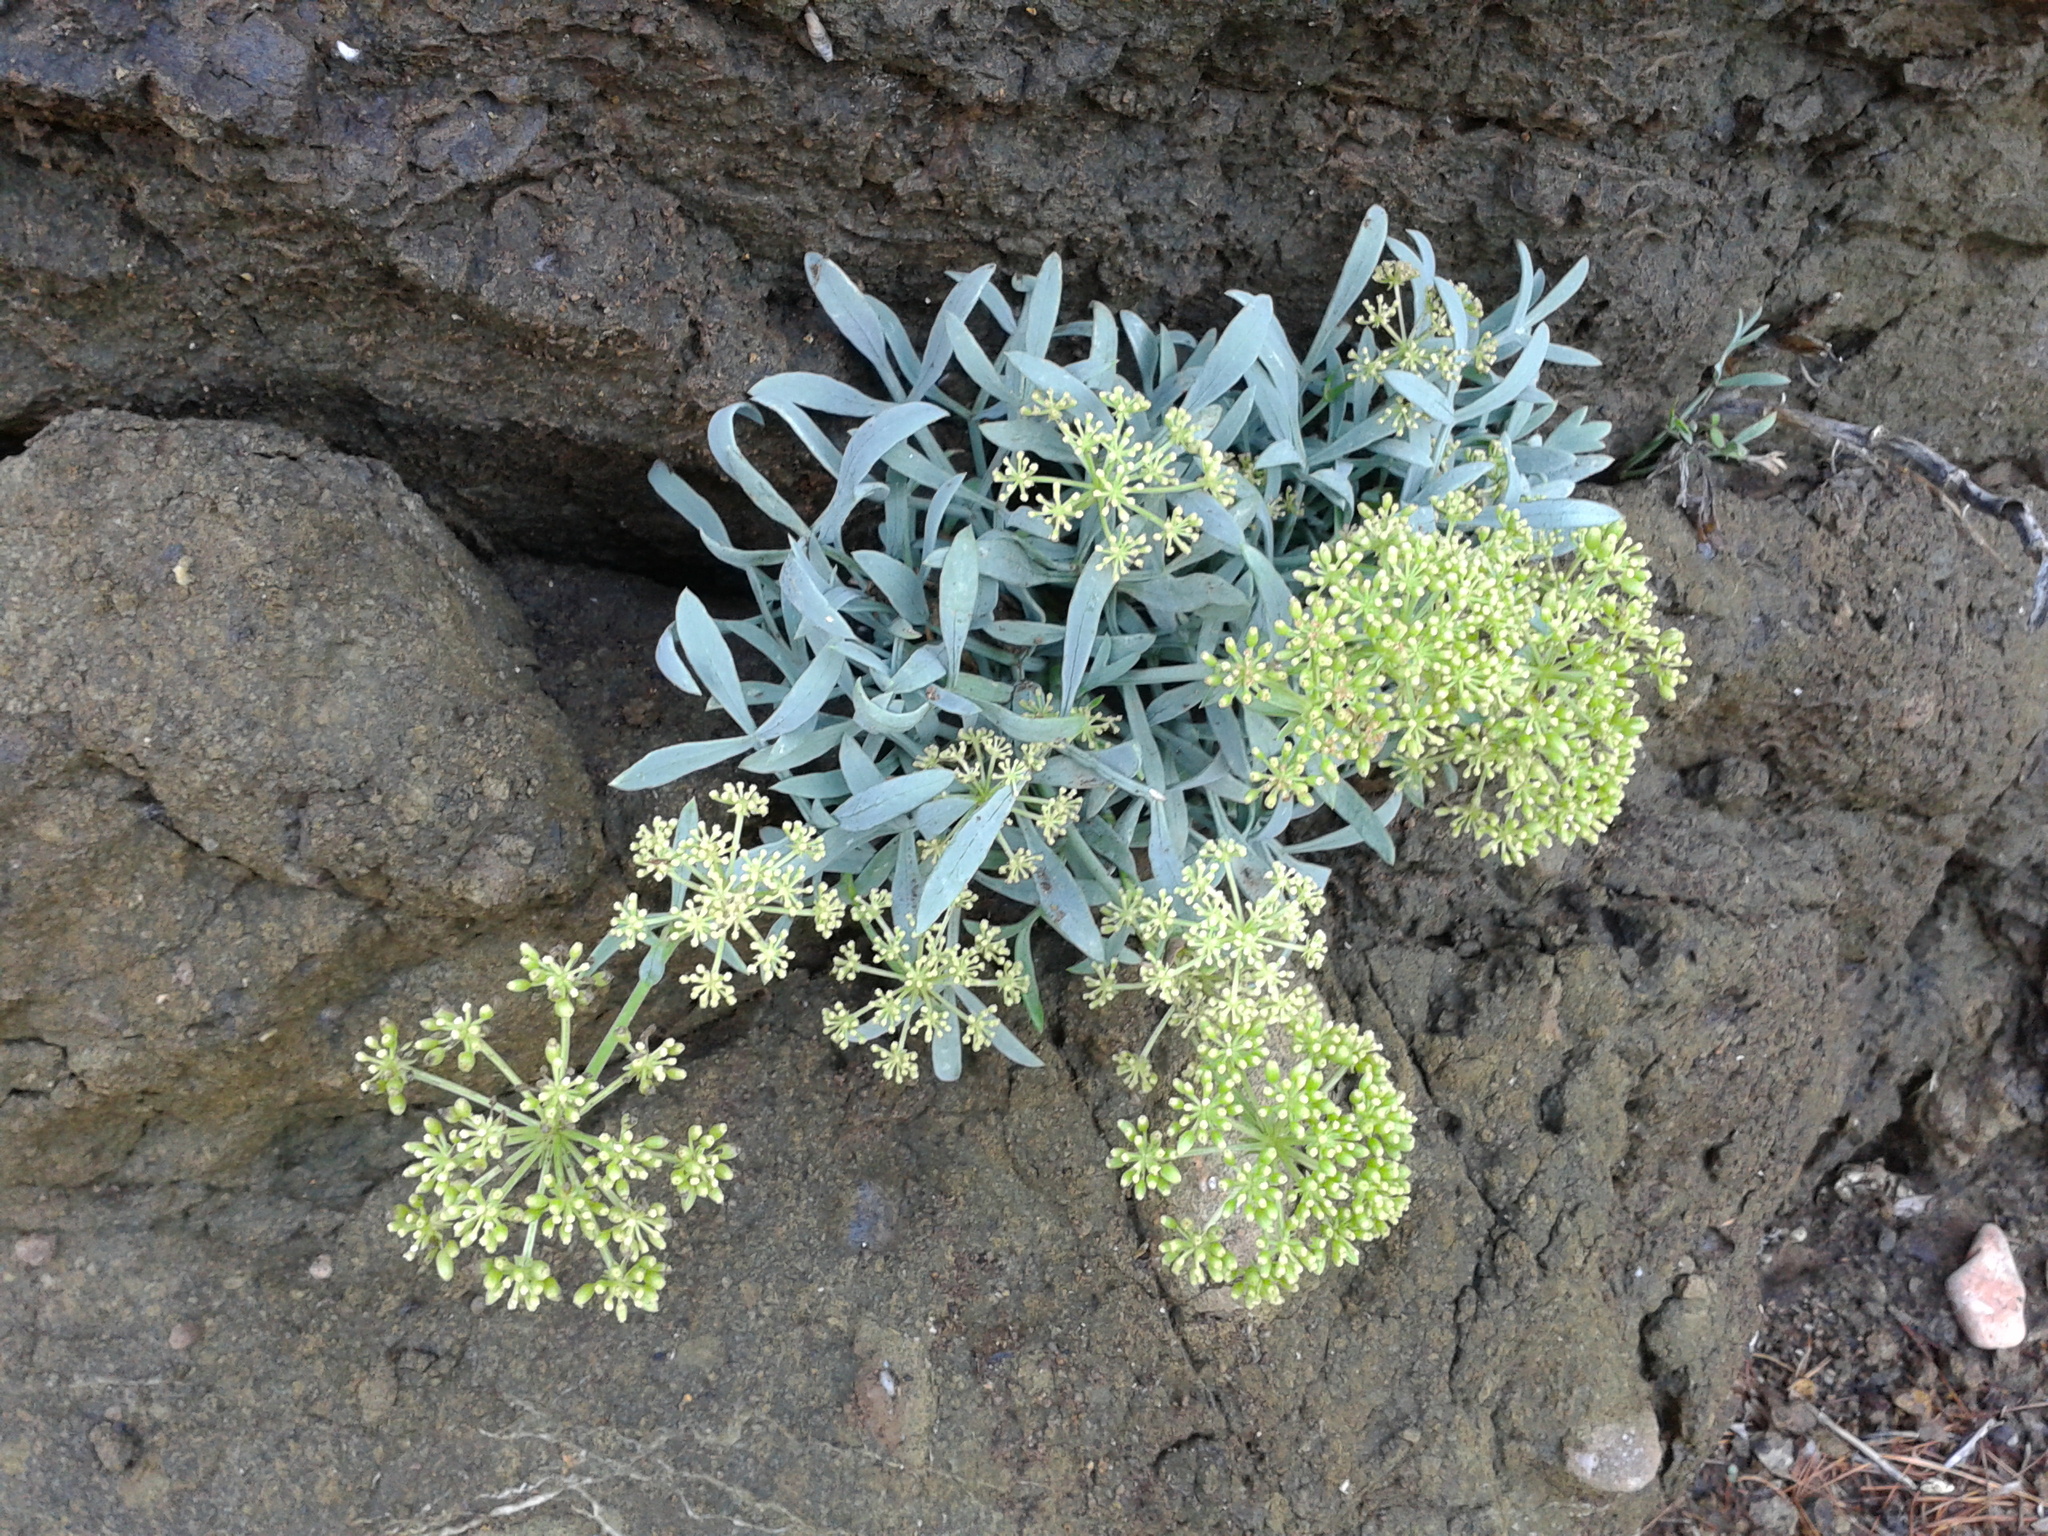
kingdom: Plantae
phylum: Tracheophyta
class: Magnoliopsida
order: Apiales
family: Apiaceae
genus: Crithmum
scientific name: Crithmum maritimum
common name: Rock samphire
